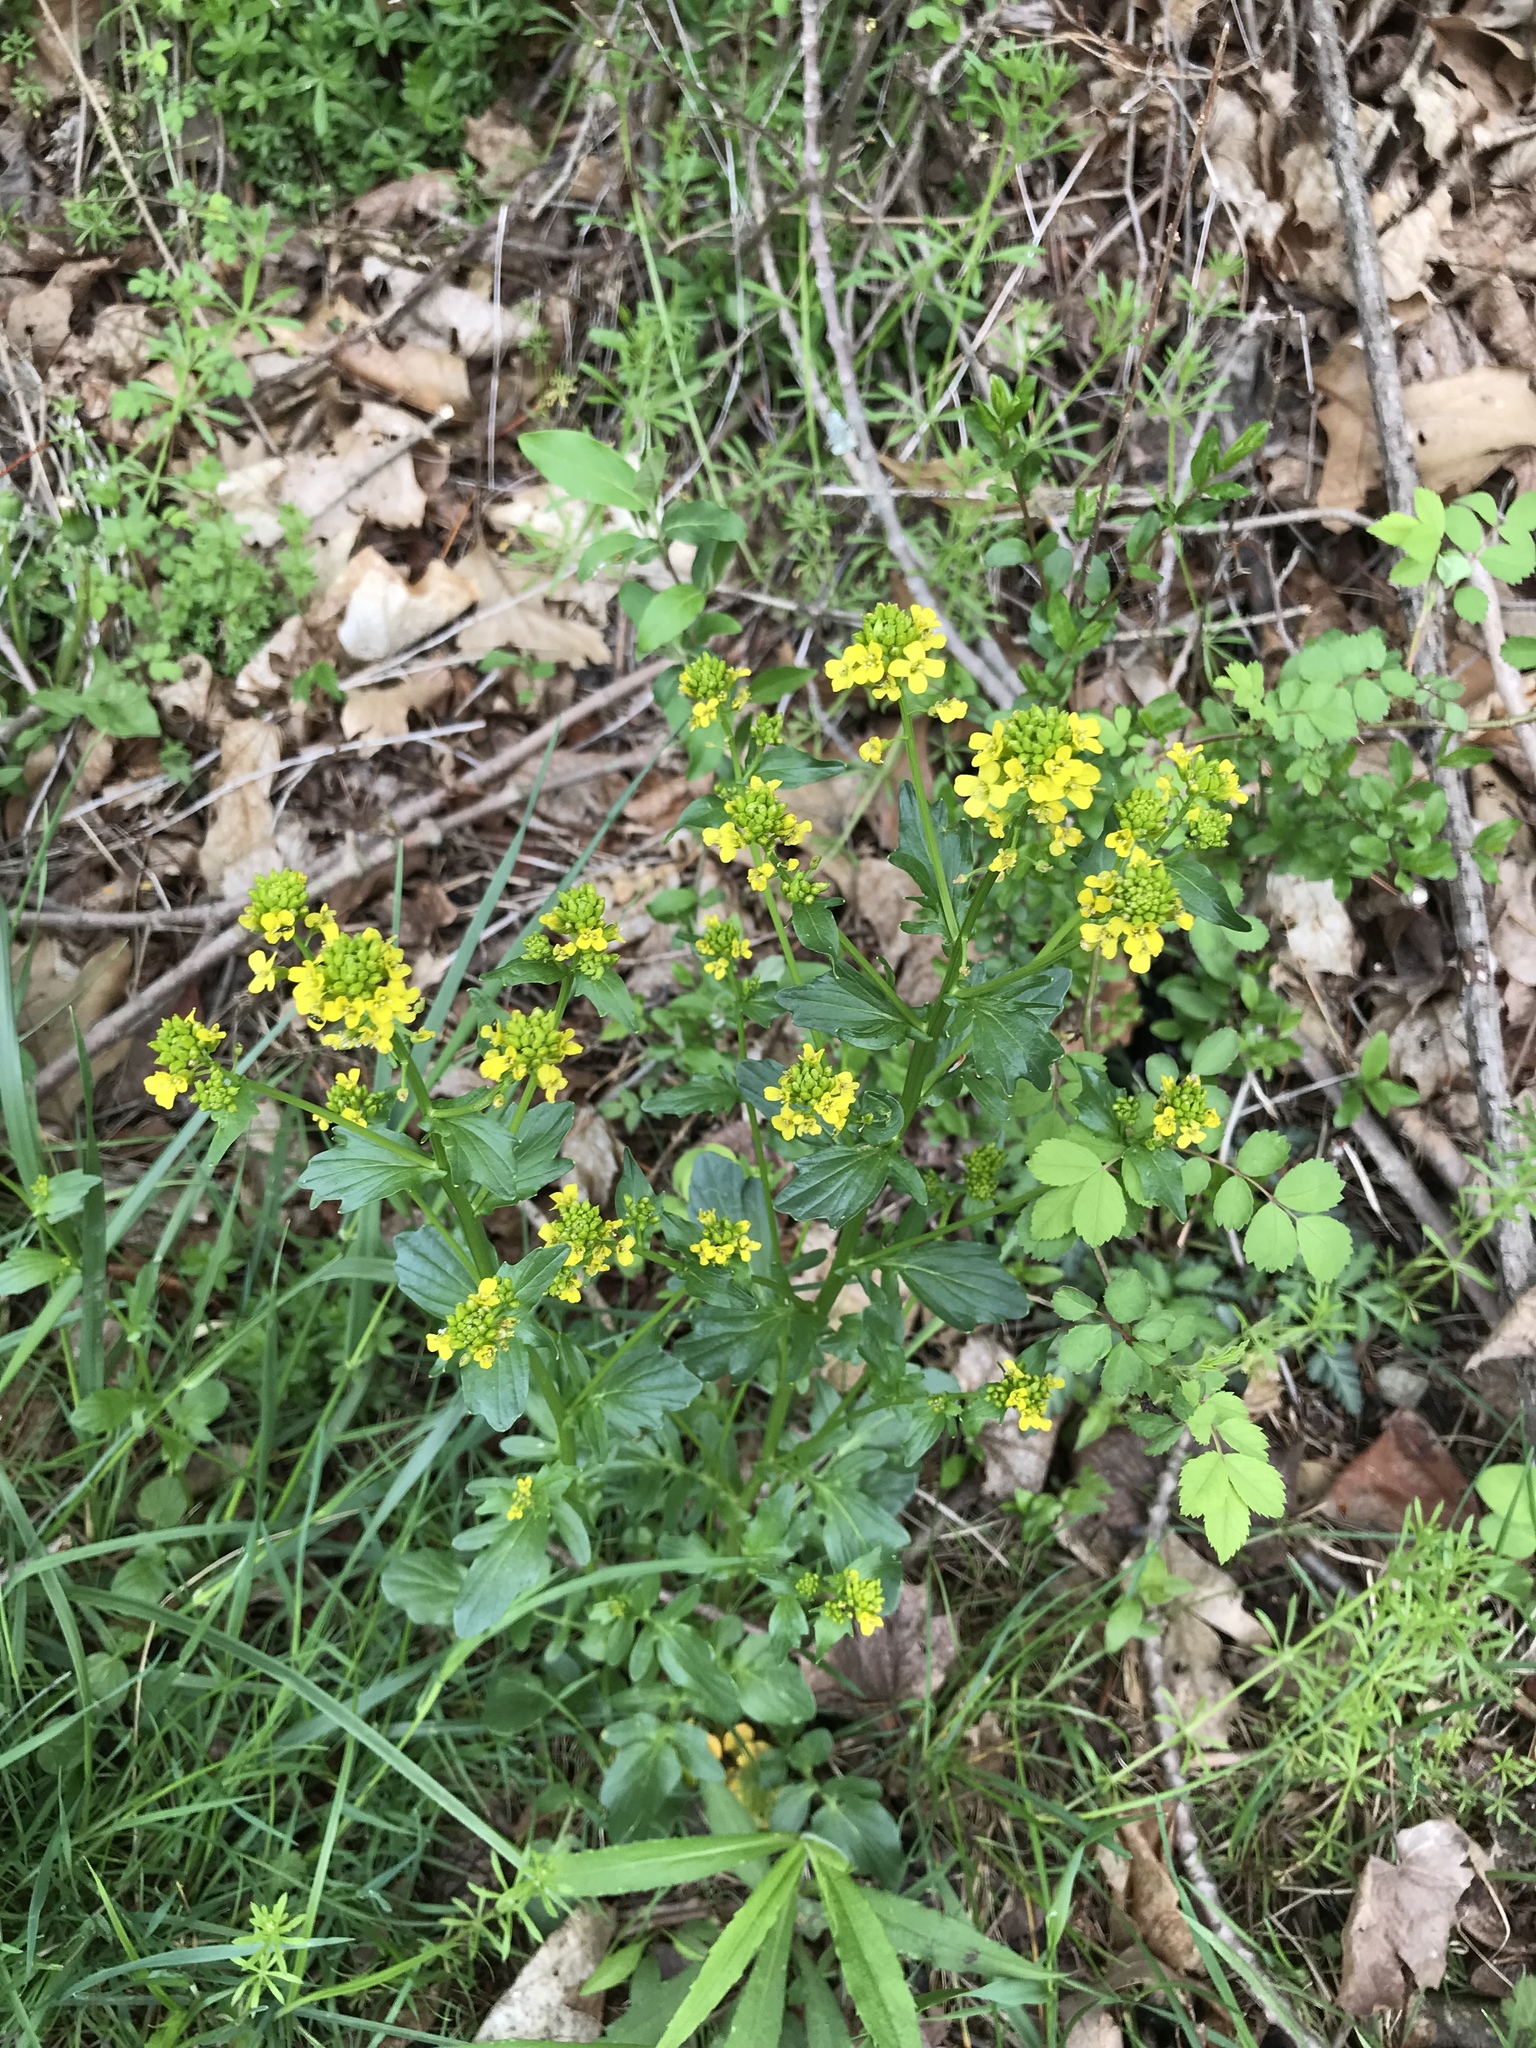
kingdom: Plantae
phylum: Tracheophyta
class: Magnoliopsida
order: Brassicales
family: Brassicaceae
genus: Barbarea
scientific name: Barbarea vulgaris
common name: Cressy-greens
